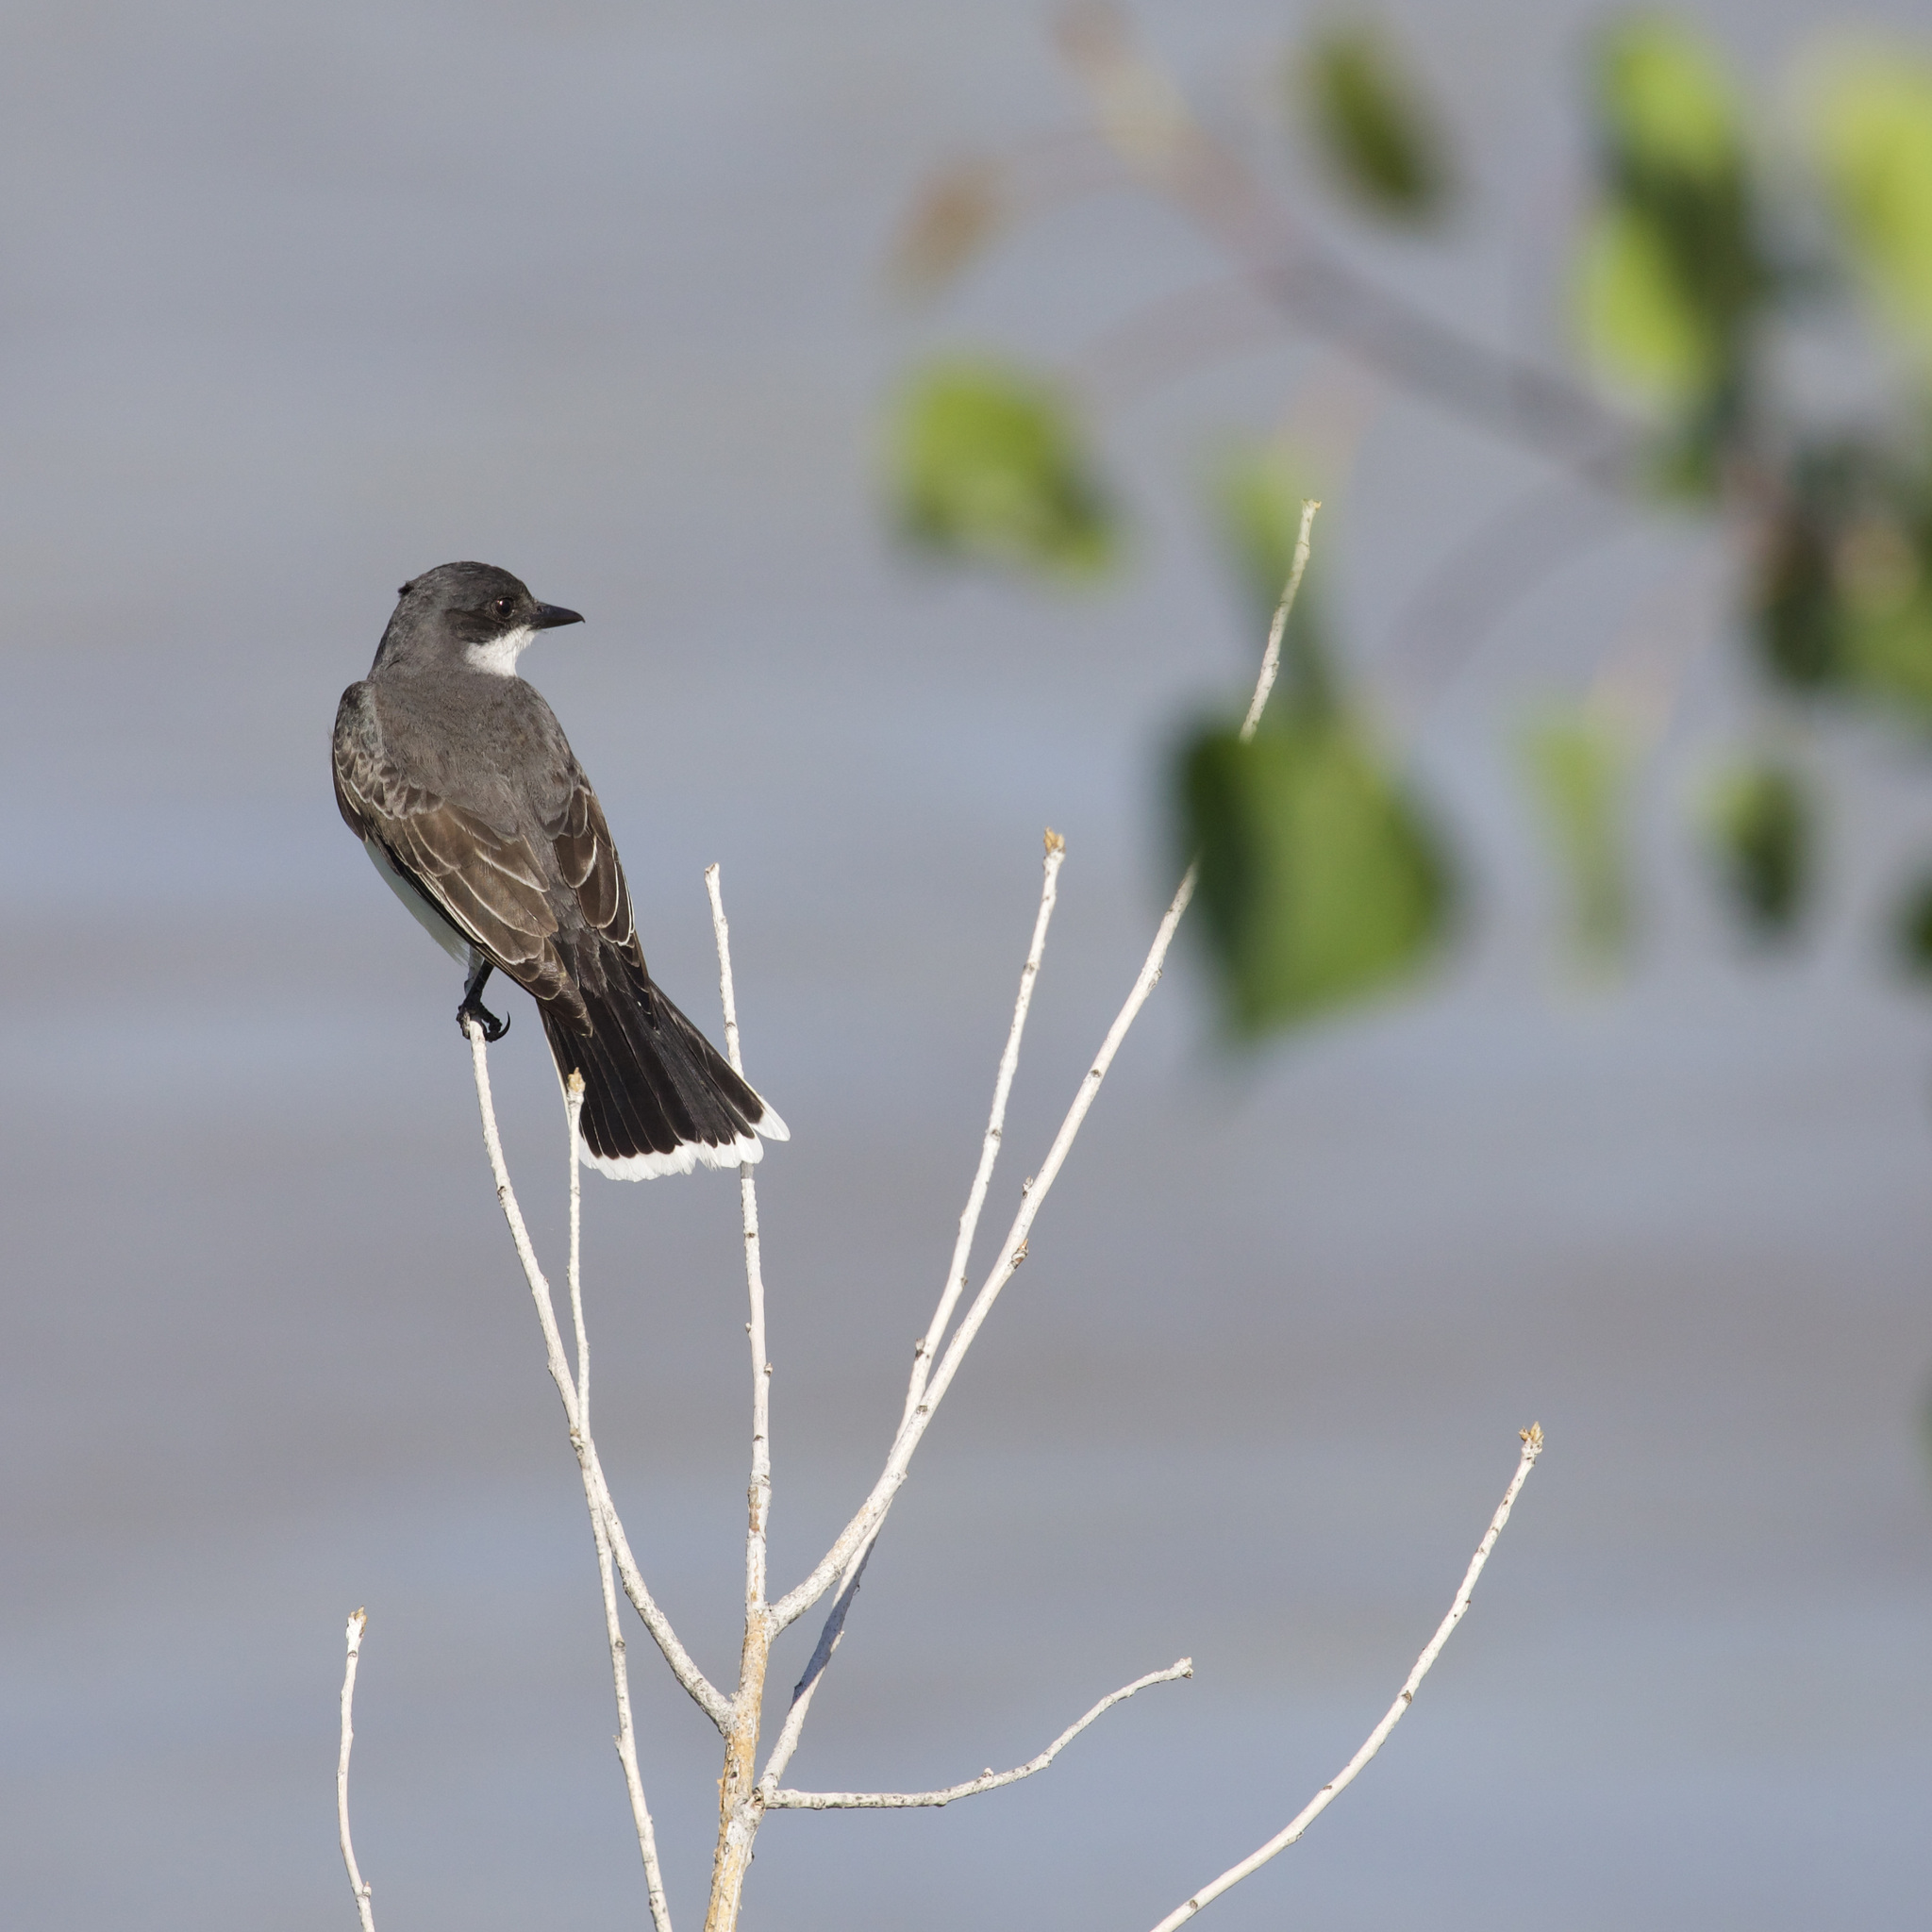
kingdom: Animalia
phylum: Chordata
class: Aves
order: Passeriformes
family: Tyrannidae
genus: Tyrannus
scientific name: Tyrannus tyrannus
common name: Eastern kingbird
